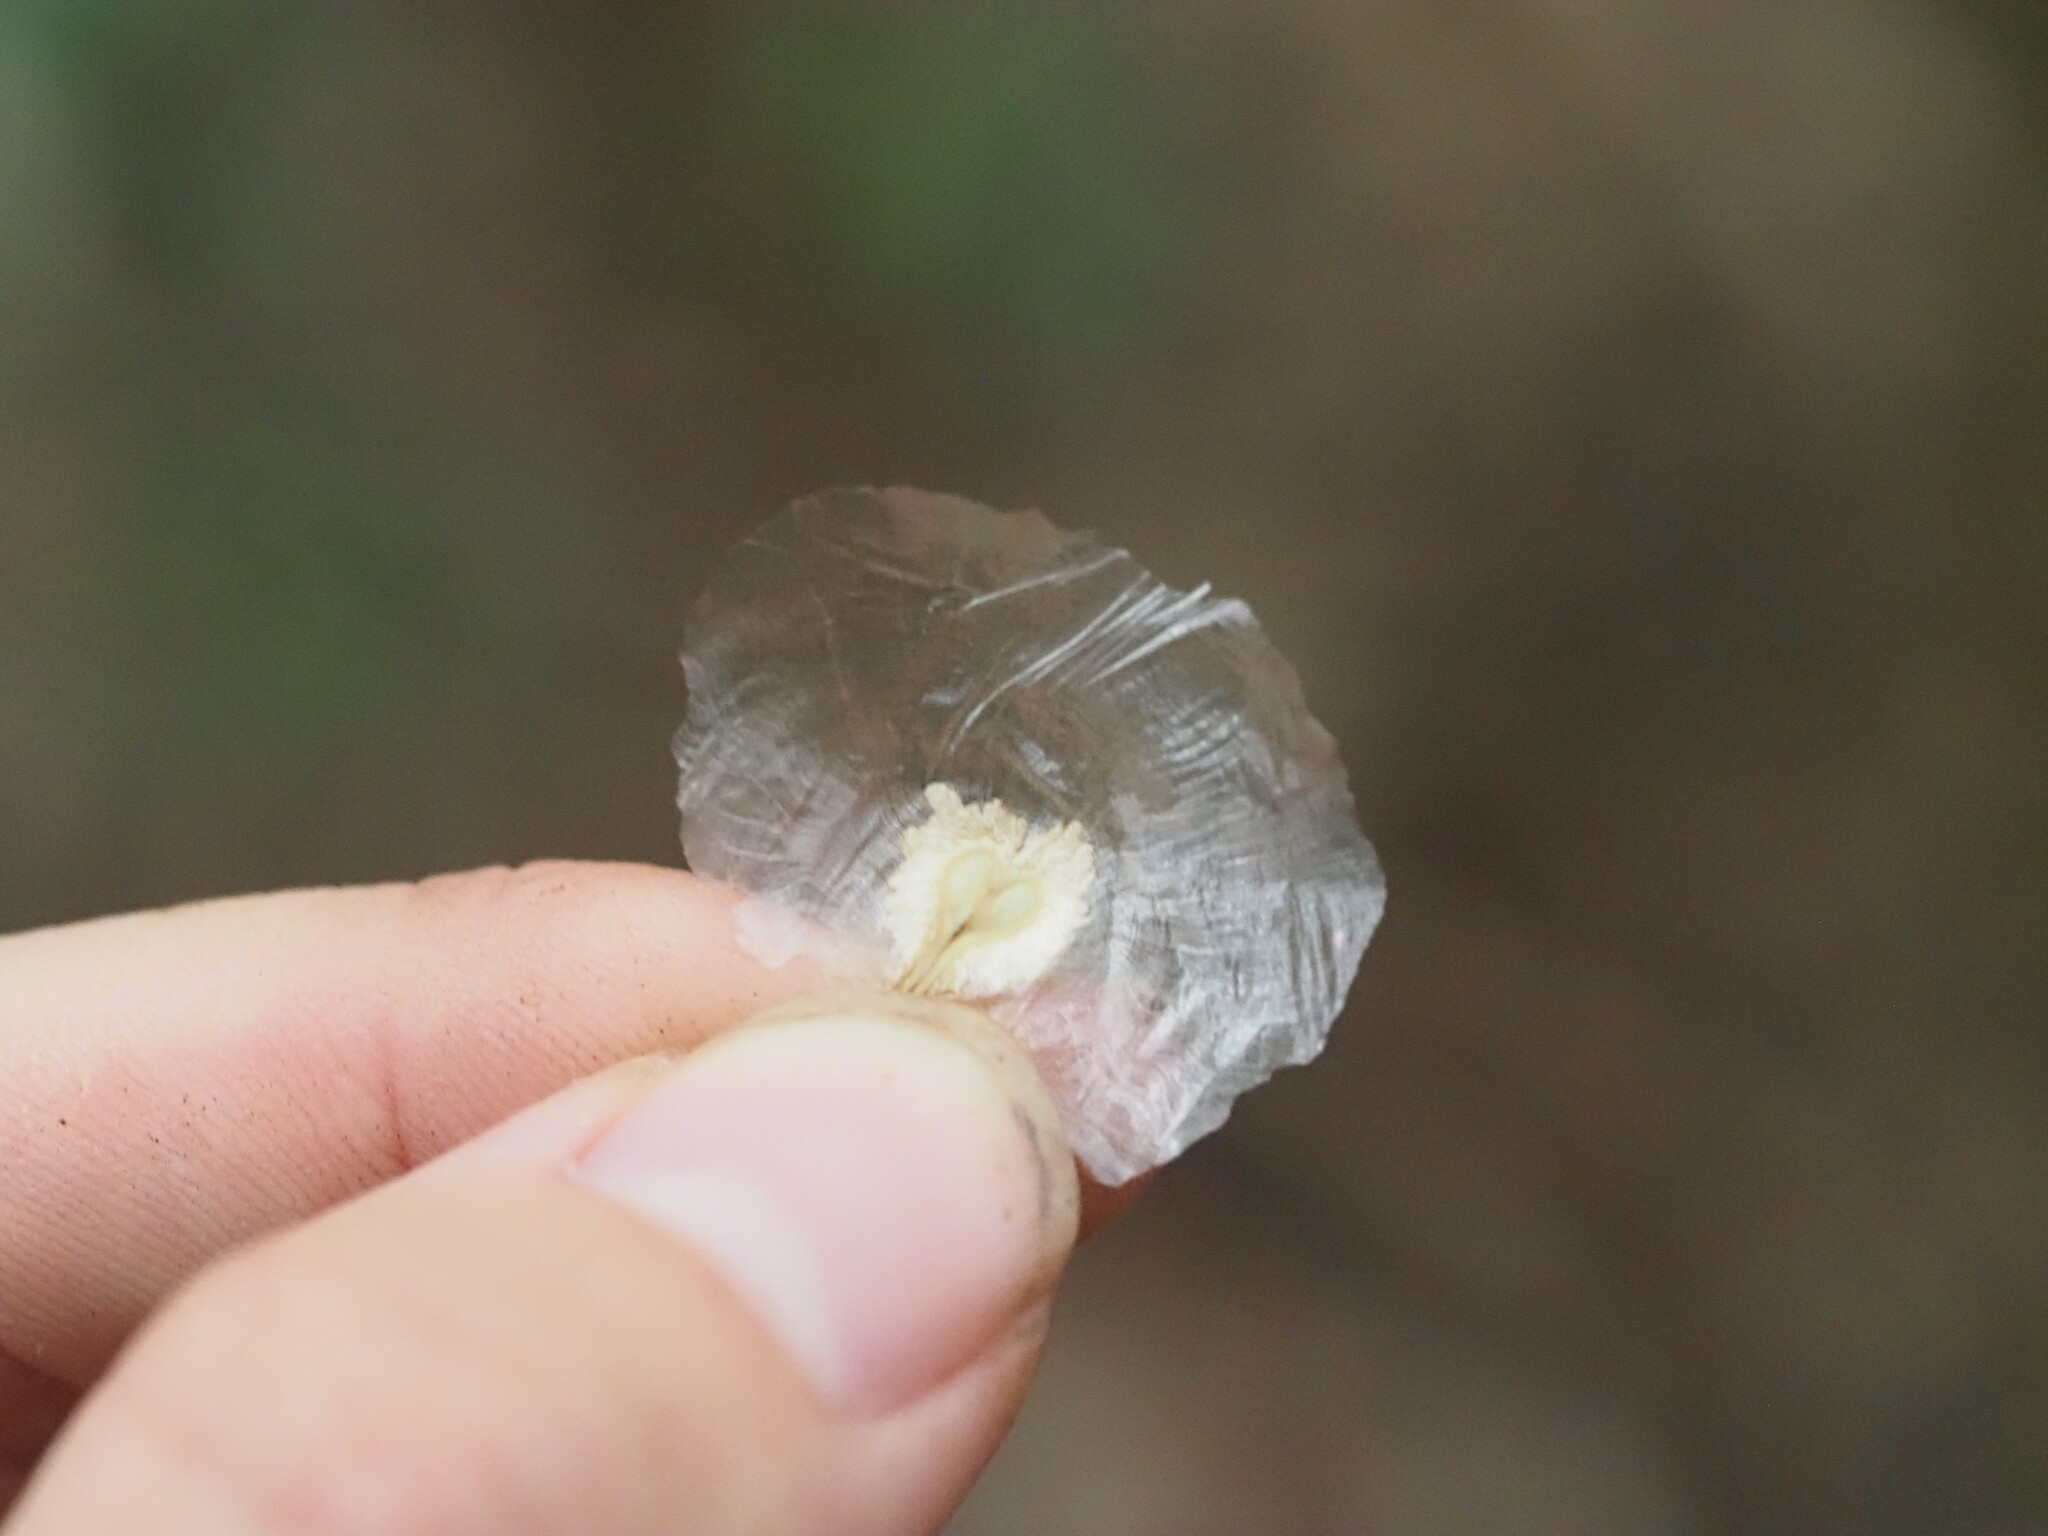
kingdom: Plantae
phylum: Tracheophyta
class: Magnoliopsida
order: Lamiales
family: Bignoniaceae
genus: Spathodea
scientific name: Spathodea campanulata
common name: African tuliptree
